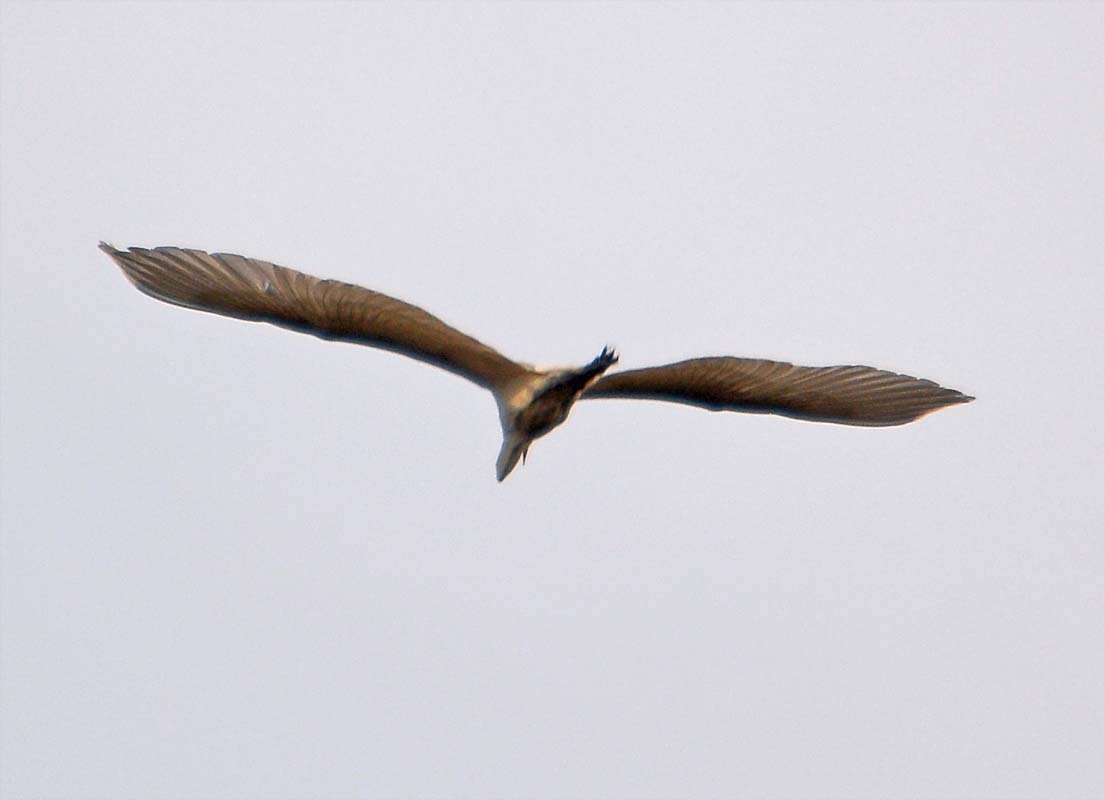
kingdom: Animalia
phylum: Chordata
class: Aves
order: Pelecaniformes
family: Ardeidae
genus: Ardea
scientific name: Ardea alba
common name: Great egret
